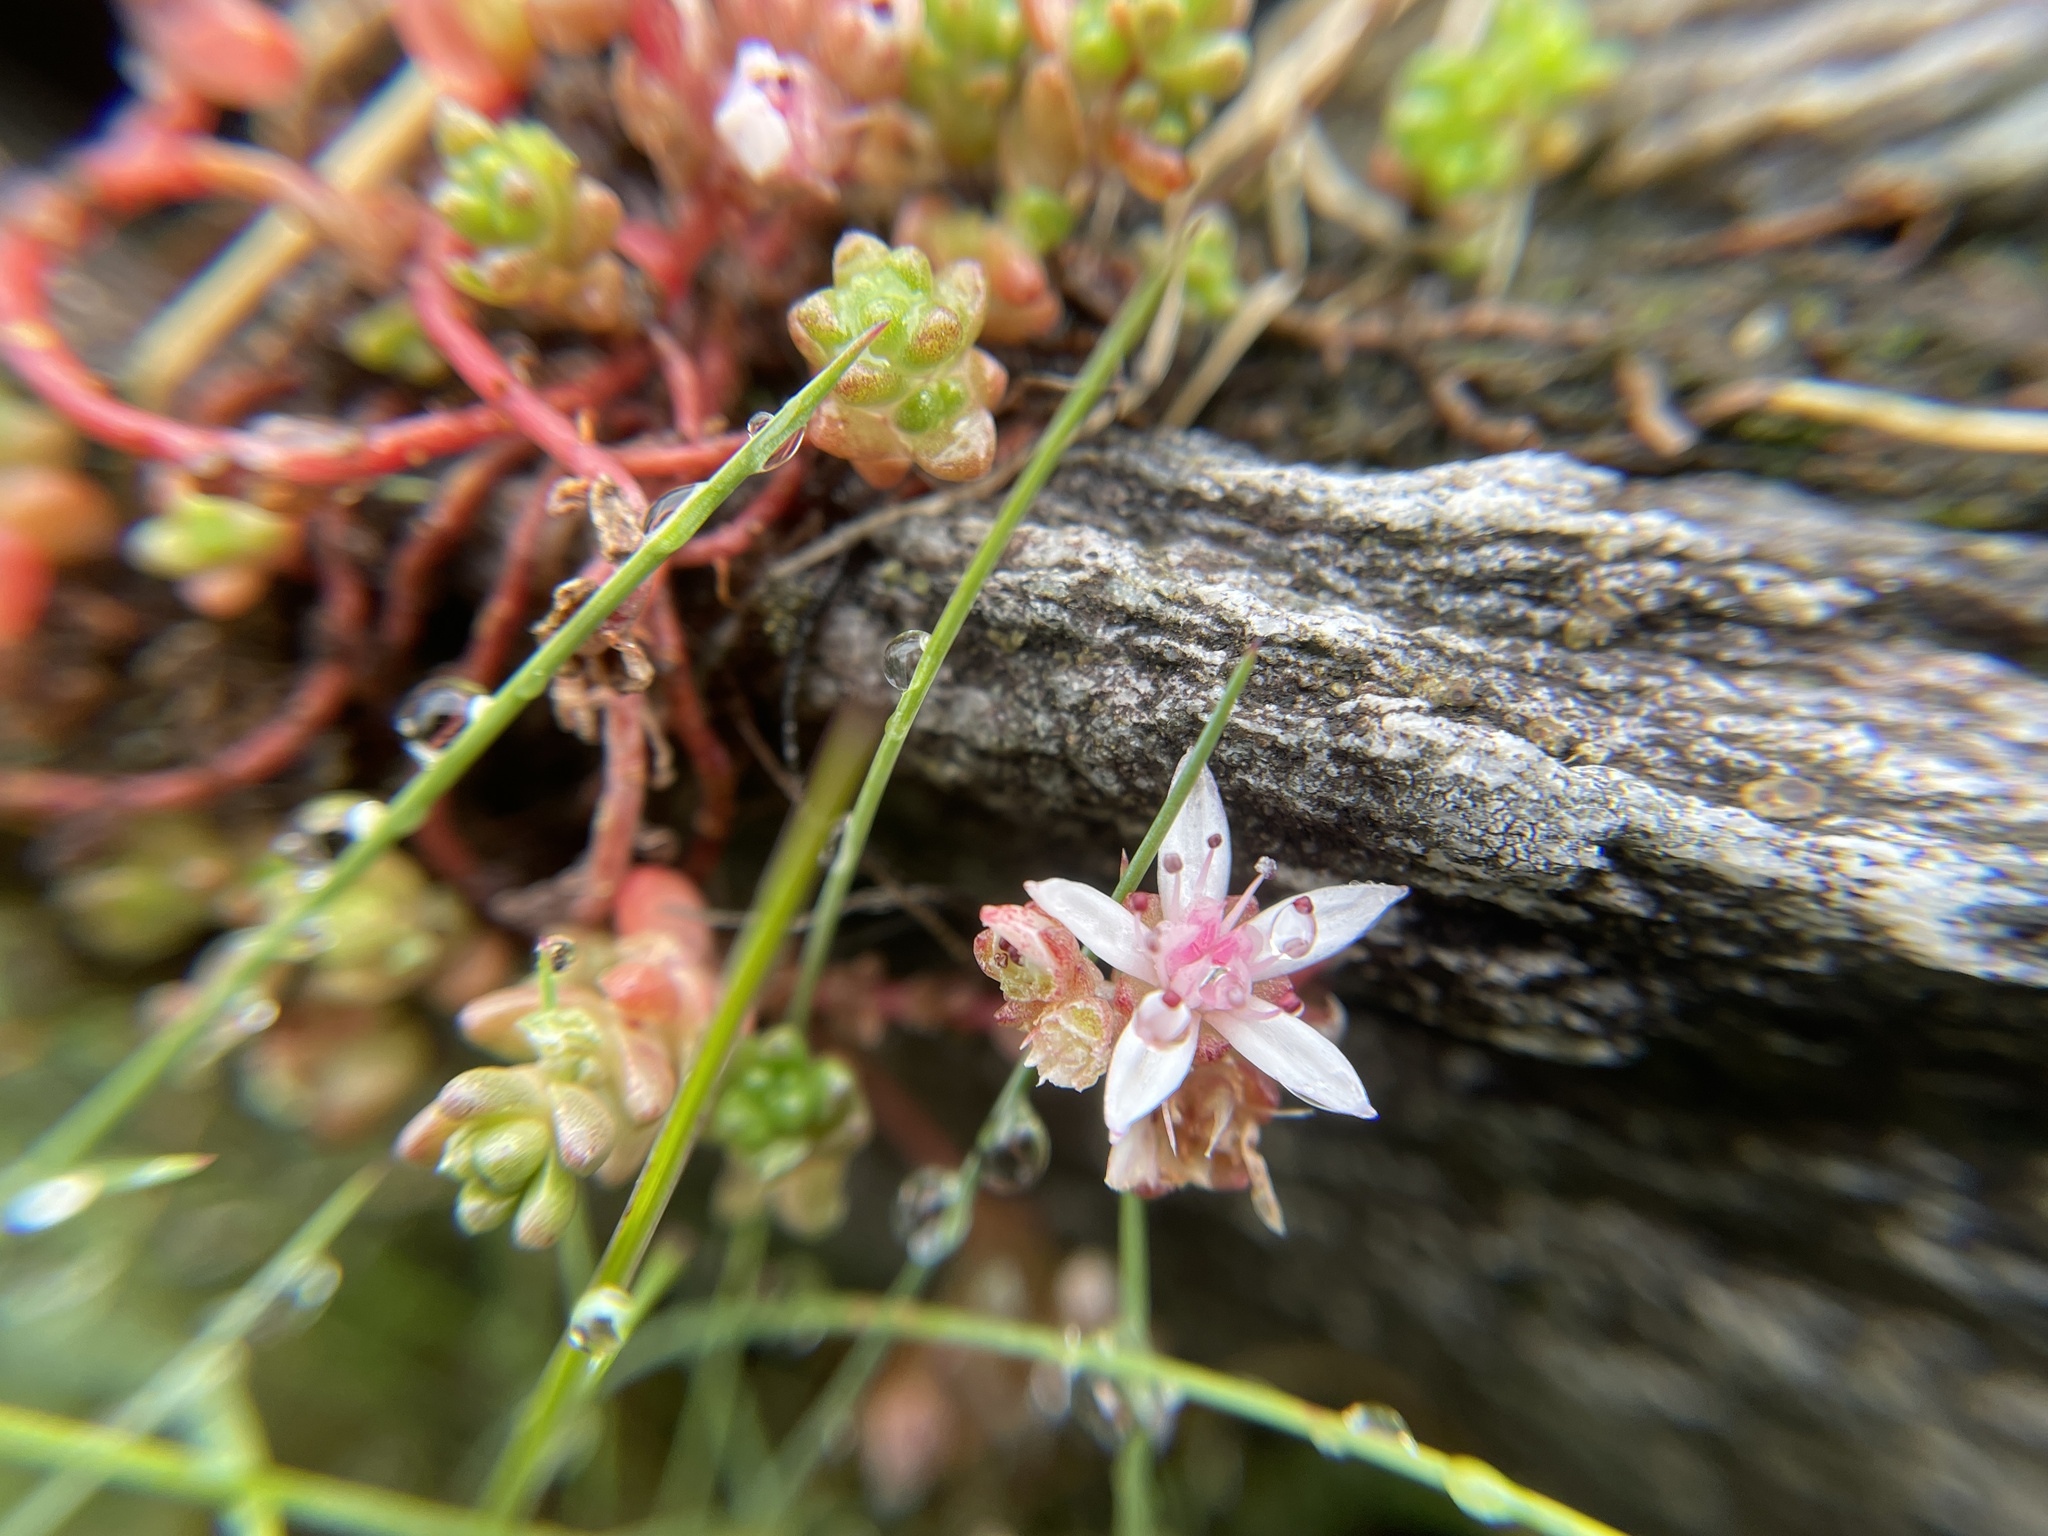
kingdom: Plantae
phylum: Tracheophyta
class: Magnoliopsida
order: Saxifragales
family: Crassulaceae
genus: Sedum
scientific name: Sedum anglicum
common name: English stonecrop
